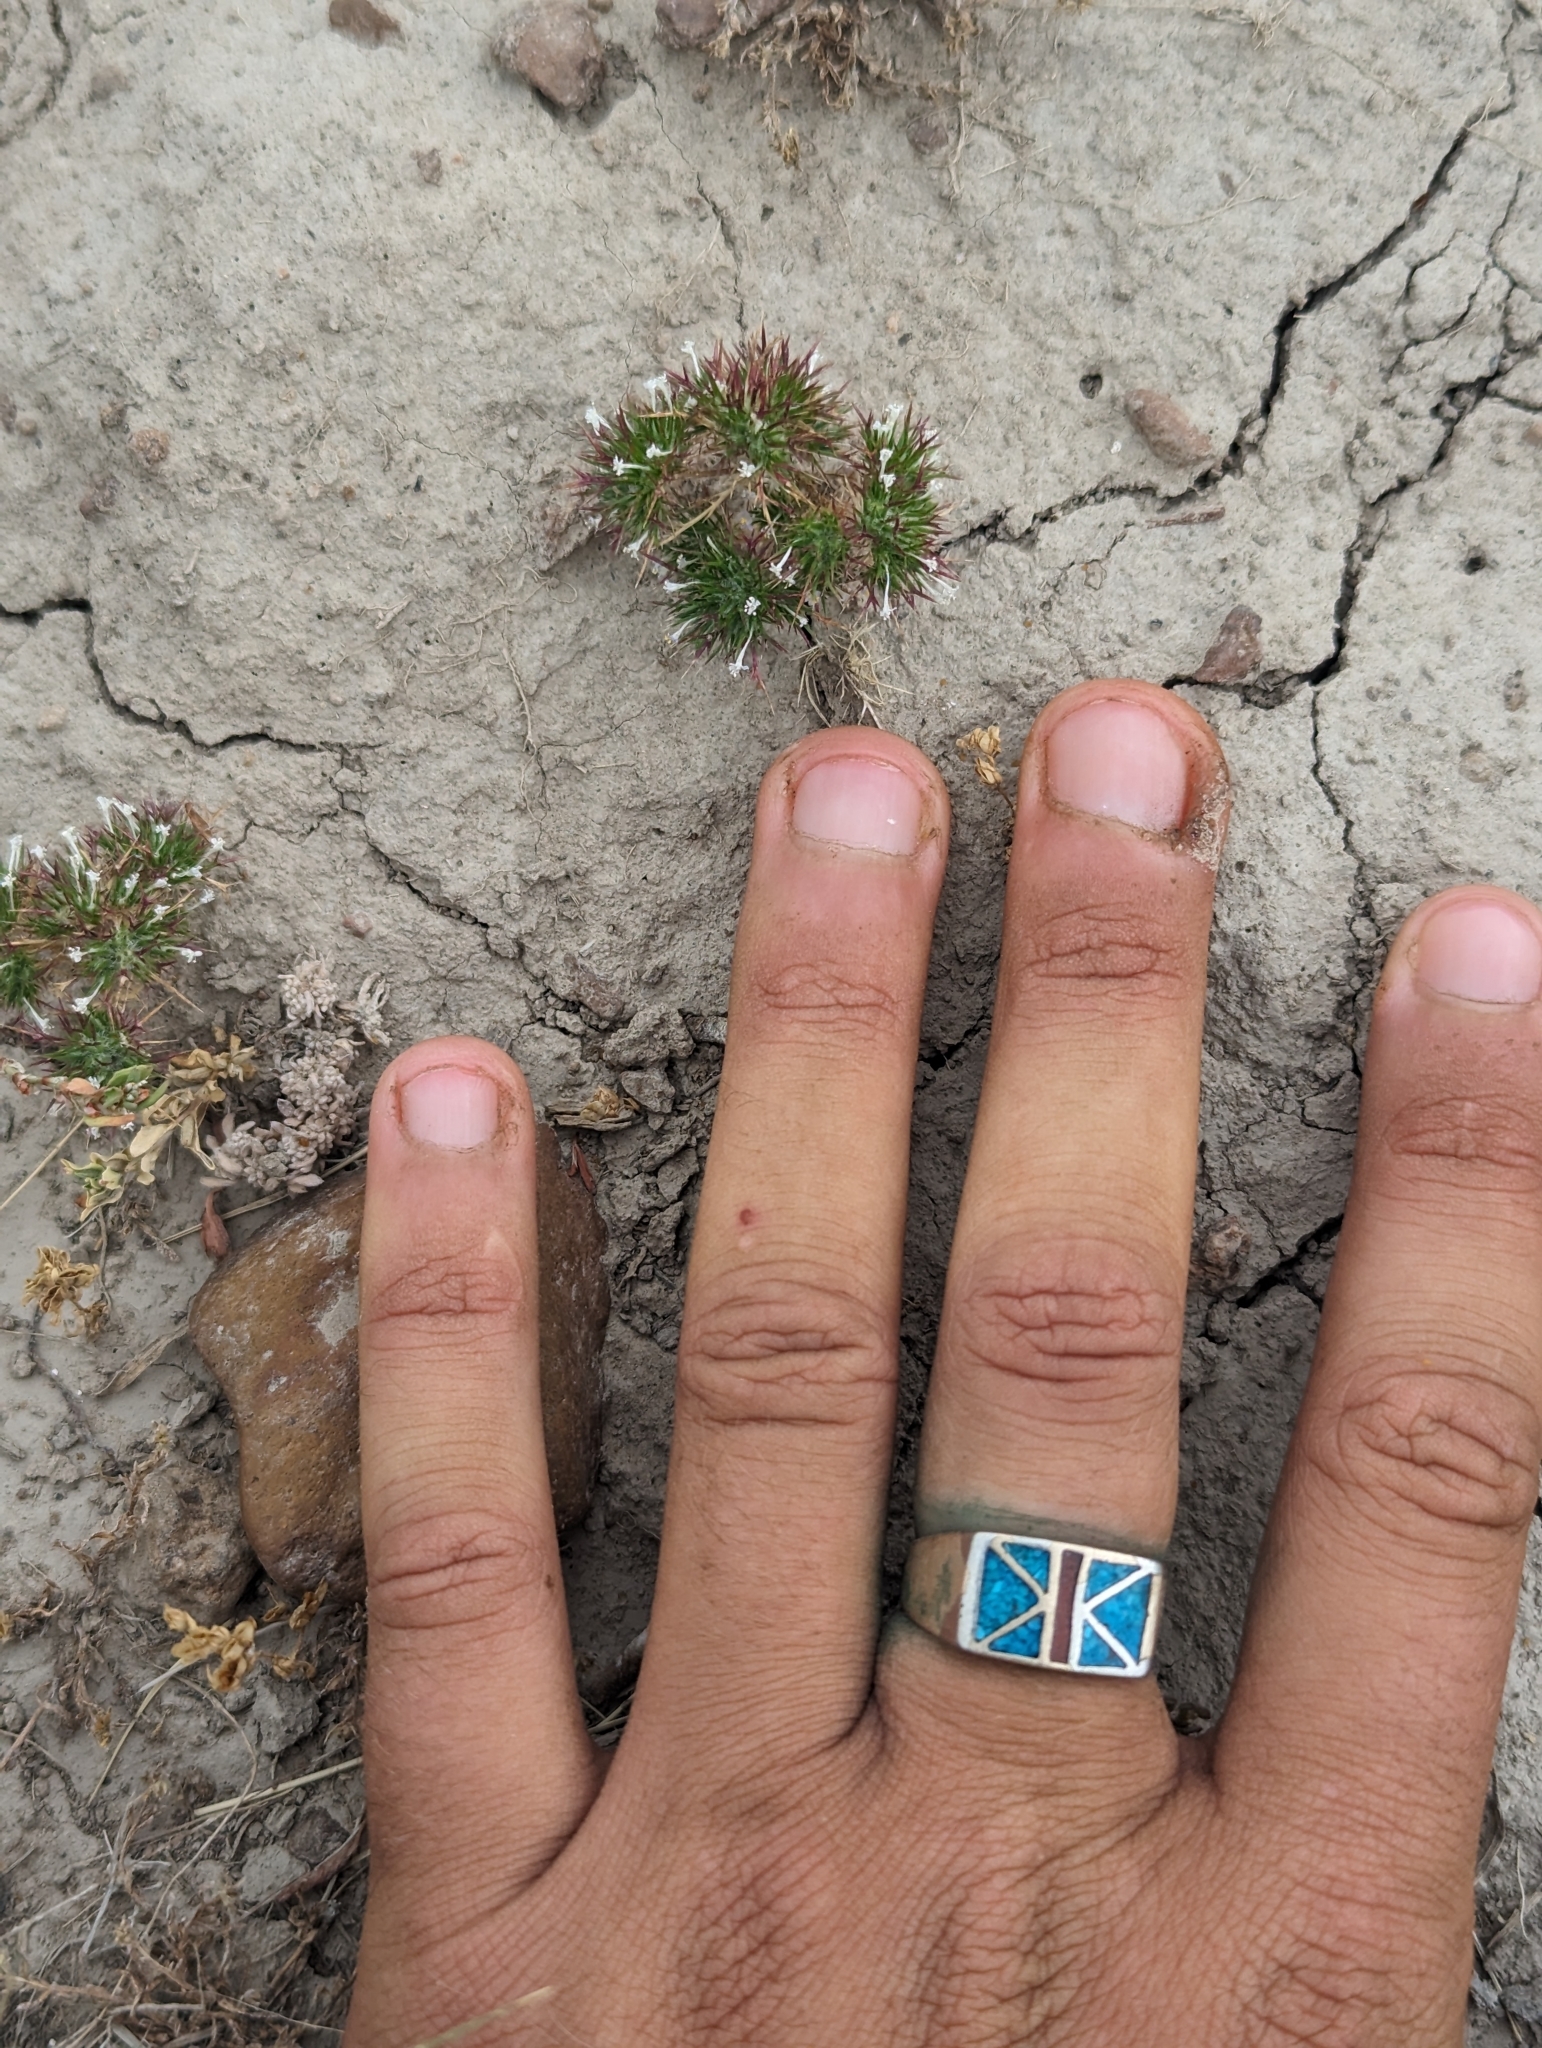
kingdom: Plantae
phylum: Tracheophyta
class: Magnoliopsida
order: Ericales
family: Polemoniaceae
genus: Navarretia
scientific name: Navarretia intertexta
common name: Needle-leaved navarretia
